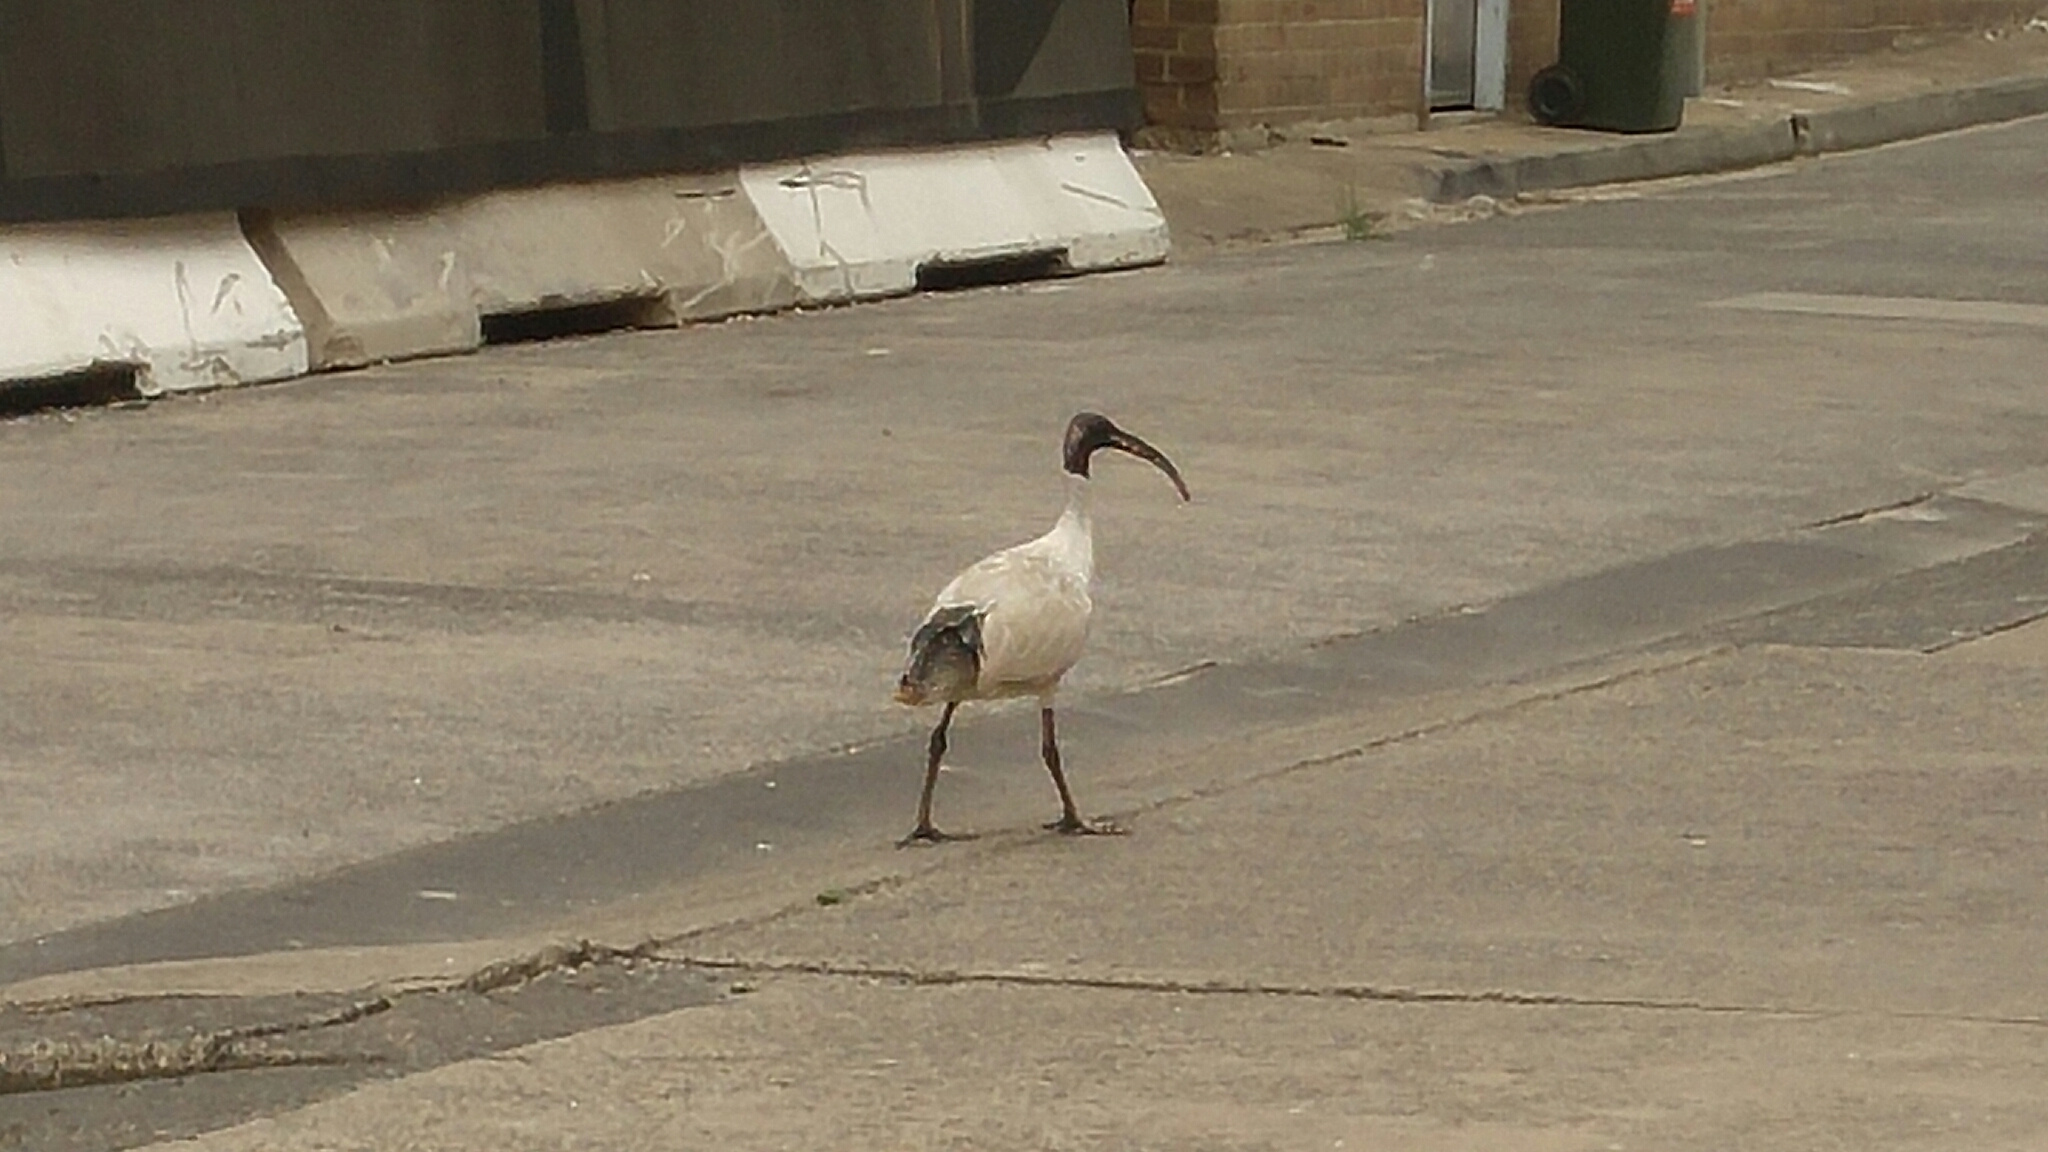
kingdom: Animalia
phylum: Chordata
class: Aves
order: Pelecaniformes
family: Threskiornithidae
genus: Threskiornis
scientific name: Threskiornis molucca
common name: Australian white ibis
